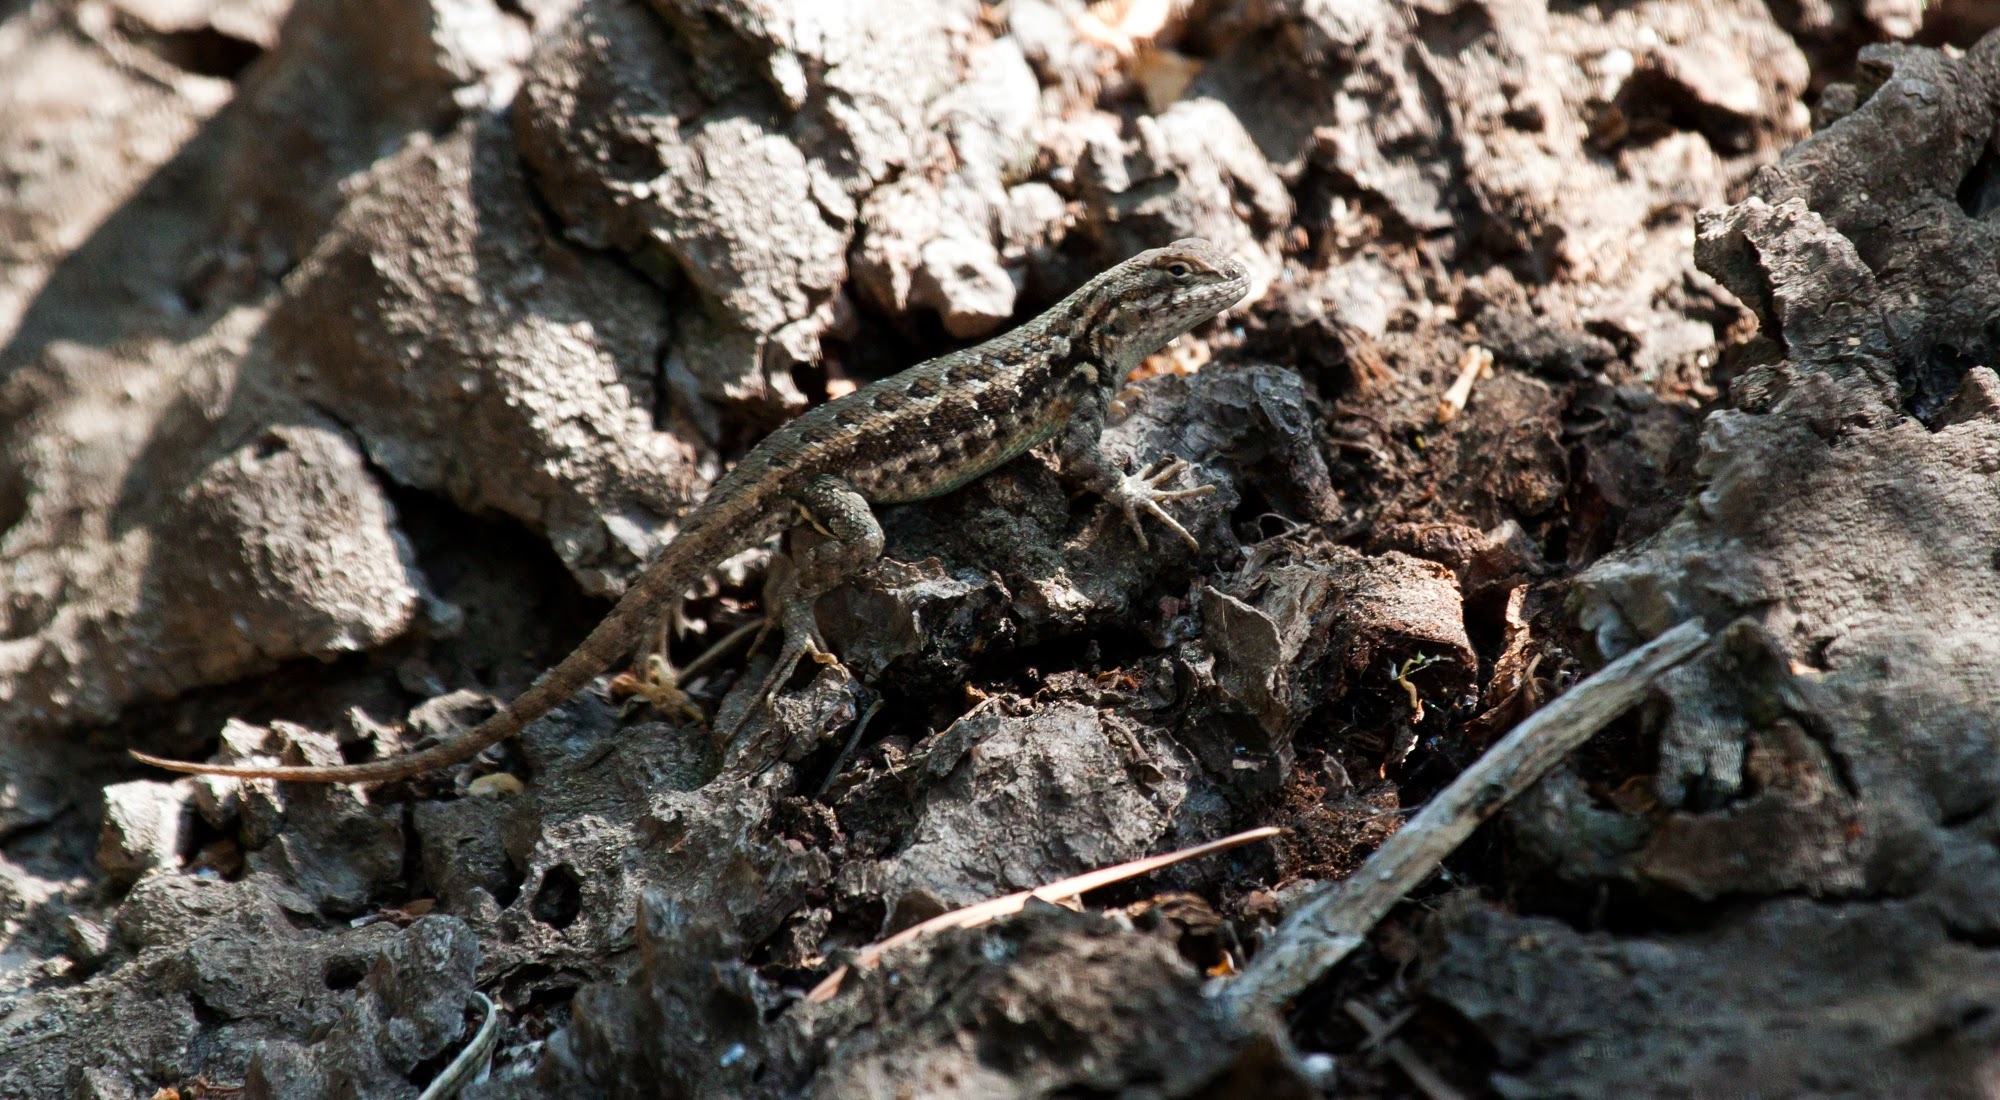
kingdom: Animalia
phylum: Chordata
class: Squamata
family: Phrynosomatidae
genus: Sceloporus
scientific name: Sceloporus graciosus
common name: Sagebrush lizard
